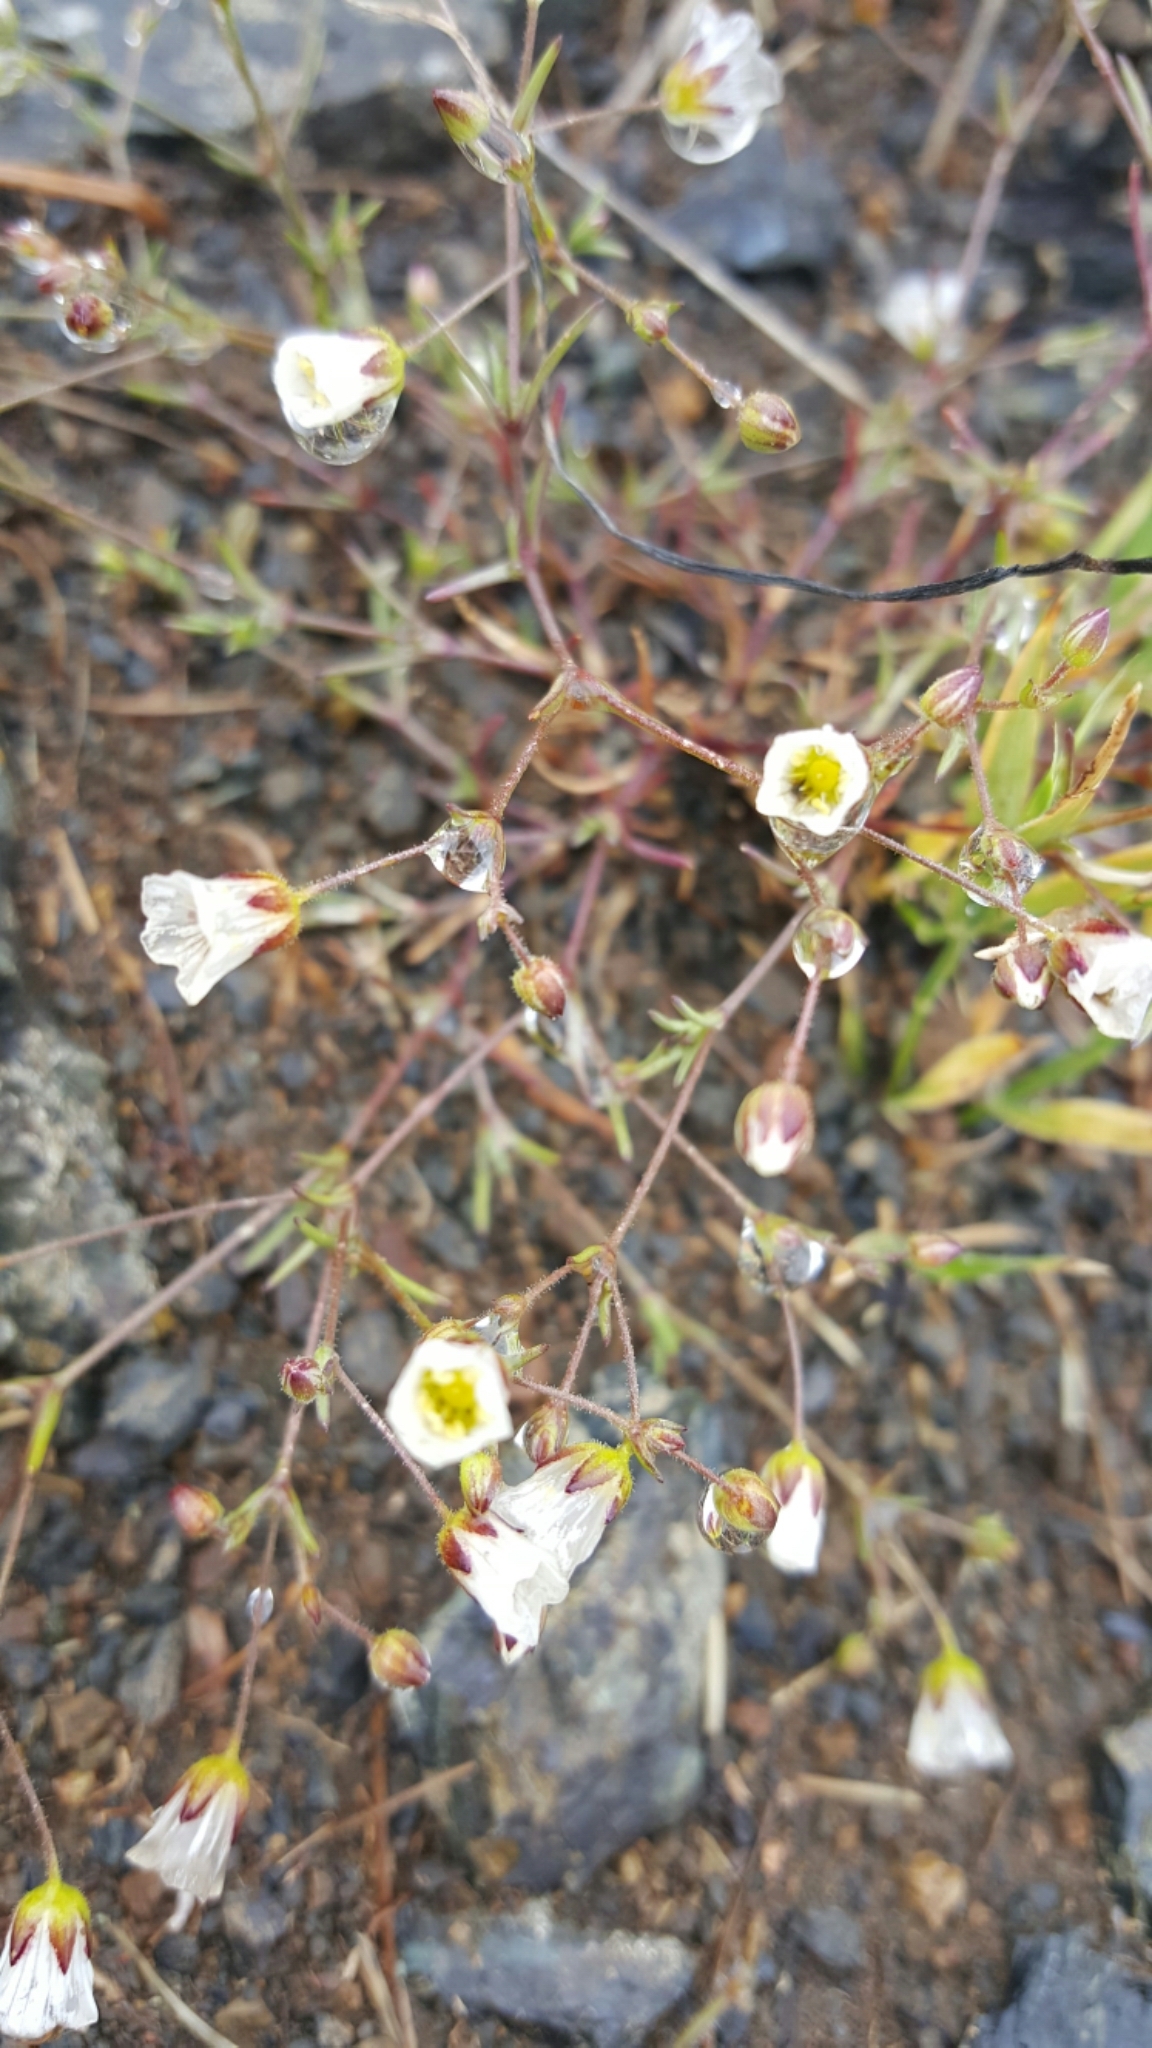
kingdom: Plantae
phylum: Tracheophyta
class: Magnoliopsida
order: Caryophyllales
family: Caryophyllaceae
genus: Sabulina
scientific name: Sabulina douglasii
